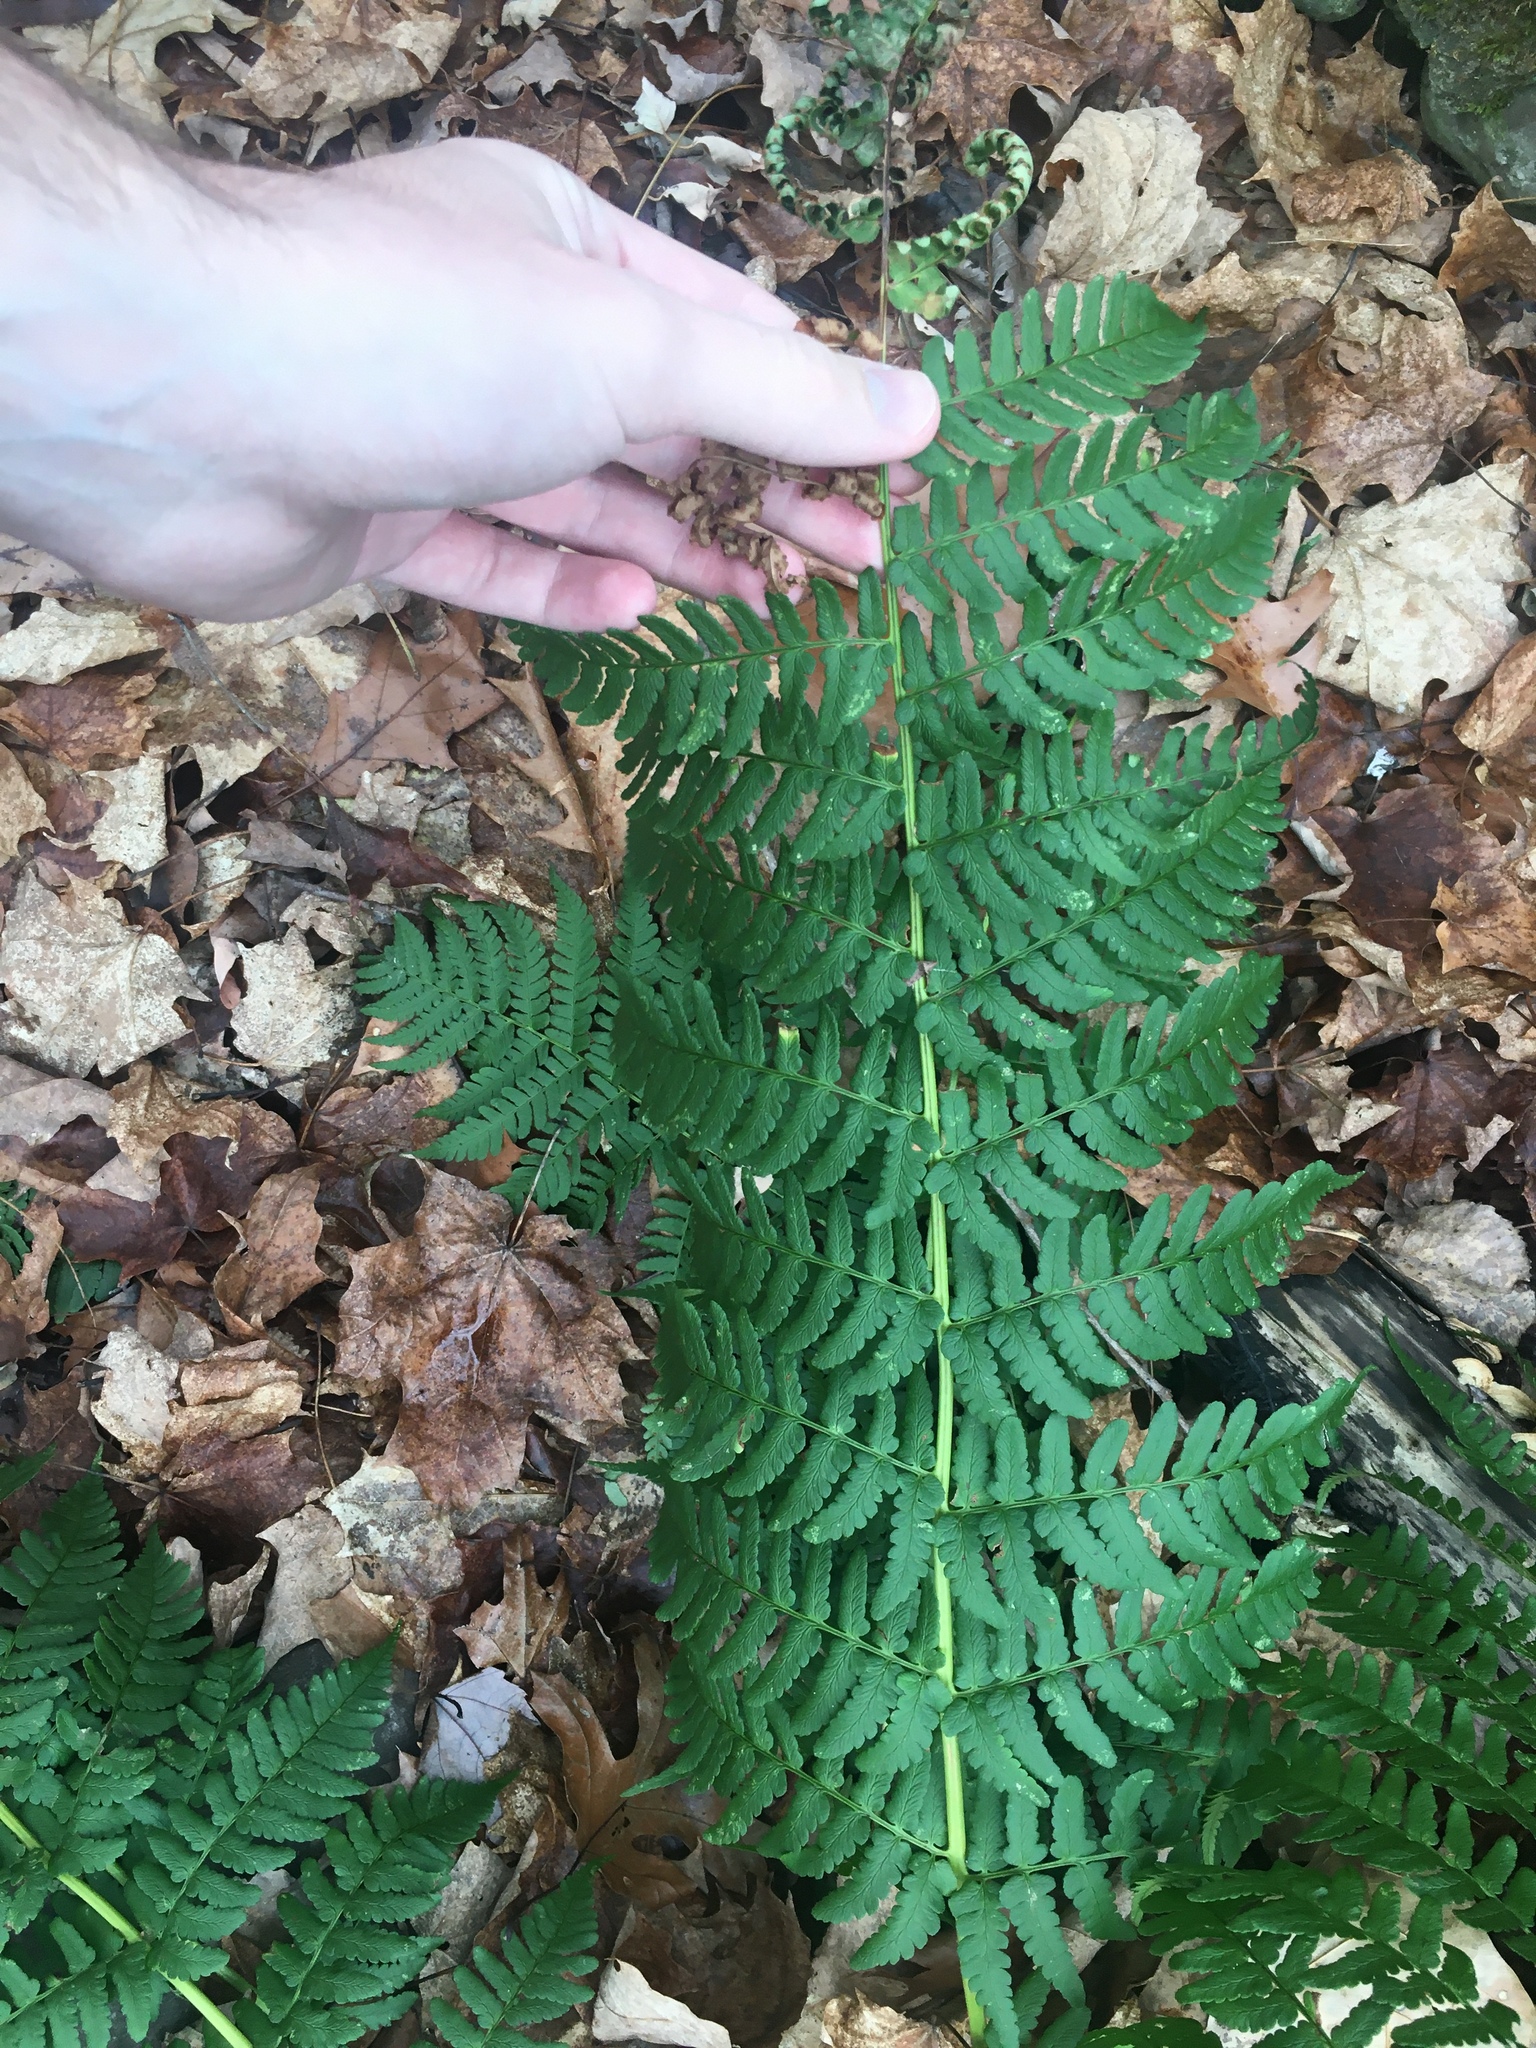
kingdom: Plantae
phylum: Tracheophyta
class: Polypodiopsida
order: Polypodiales
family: Dryopteridaceae
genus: Dryopteris
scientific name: Dryopteris marginalis
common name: Marginal wood fern
